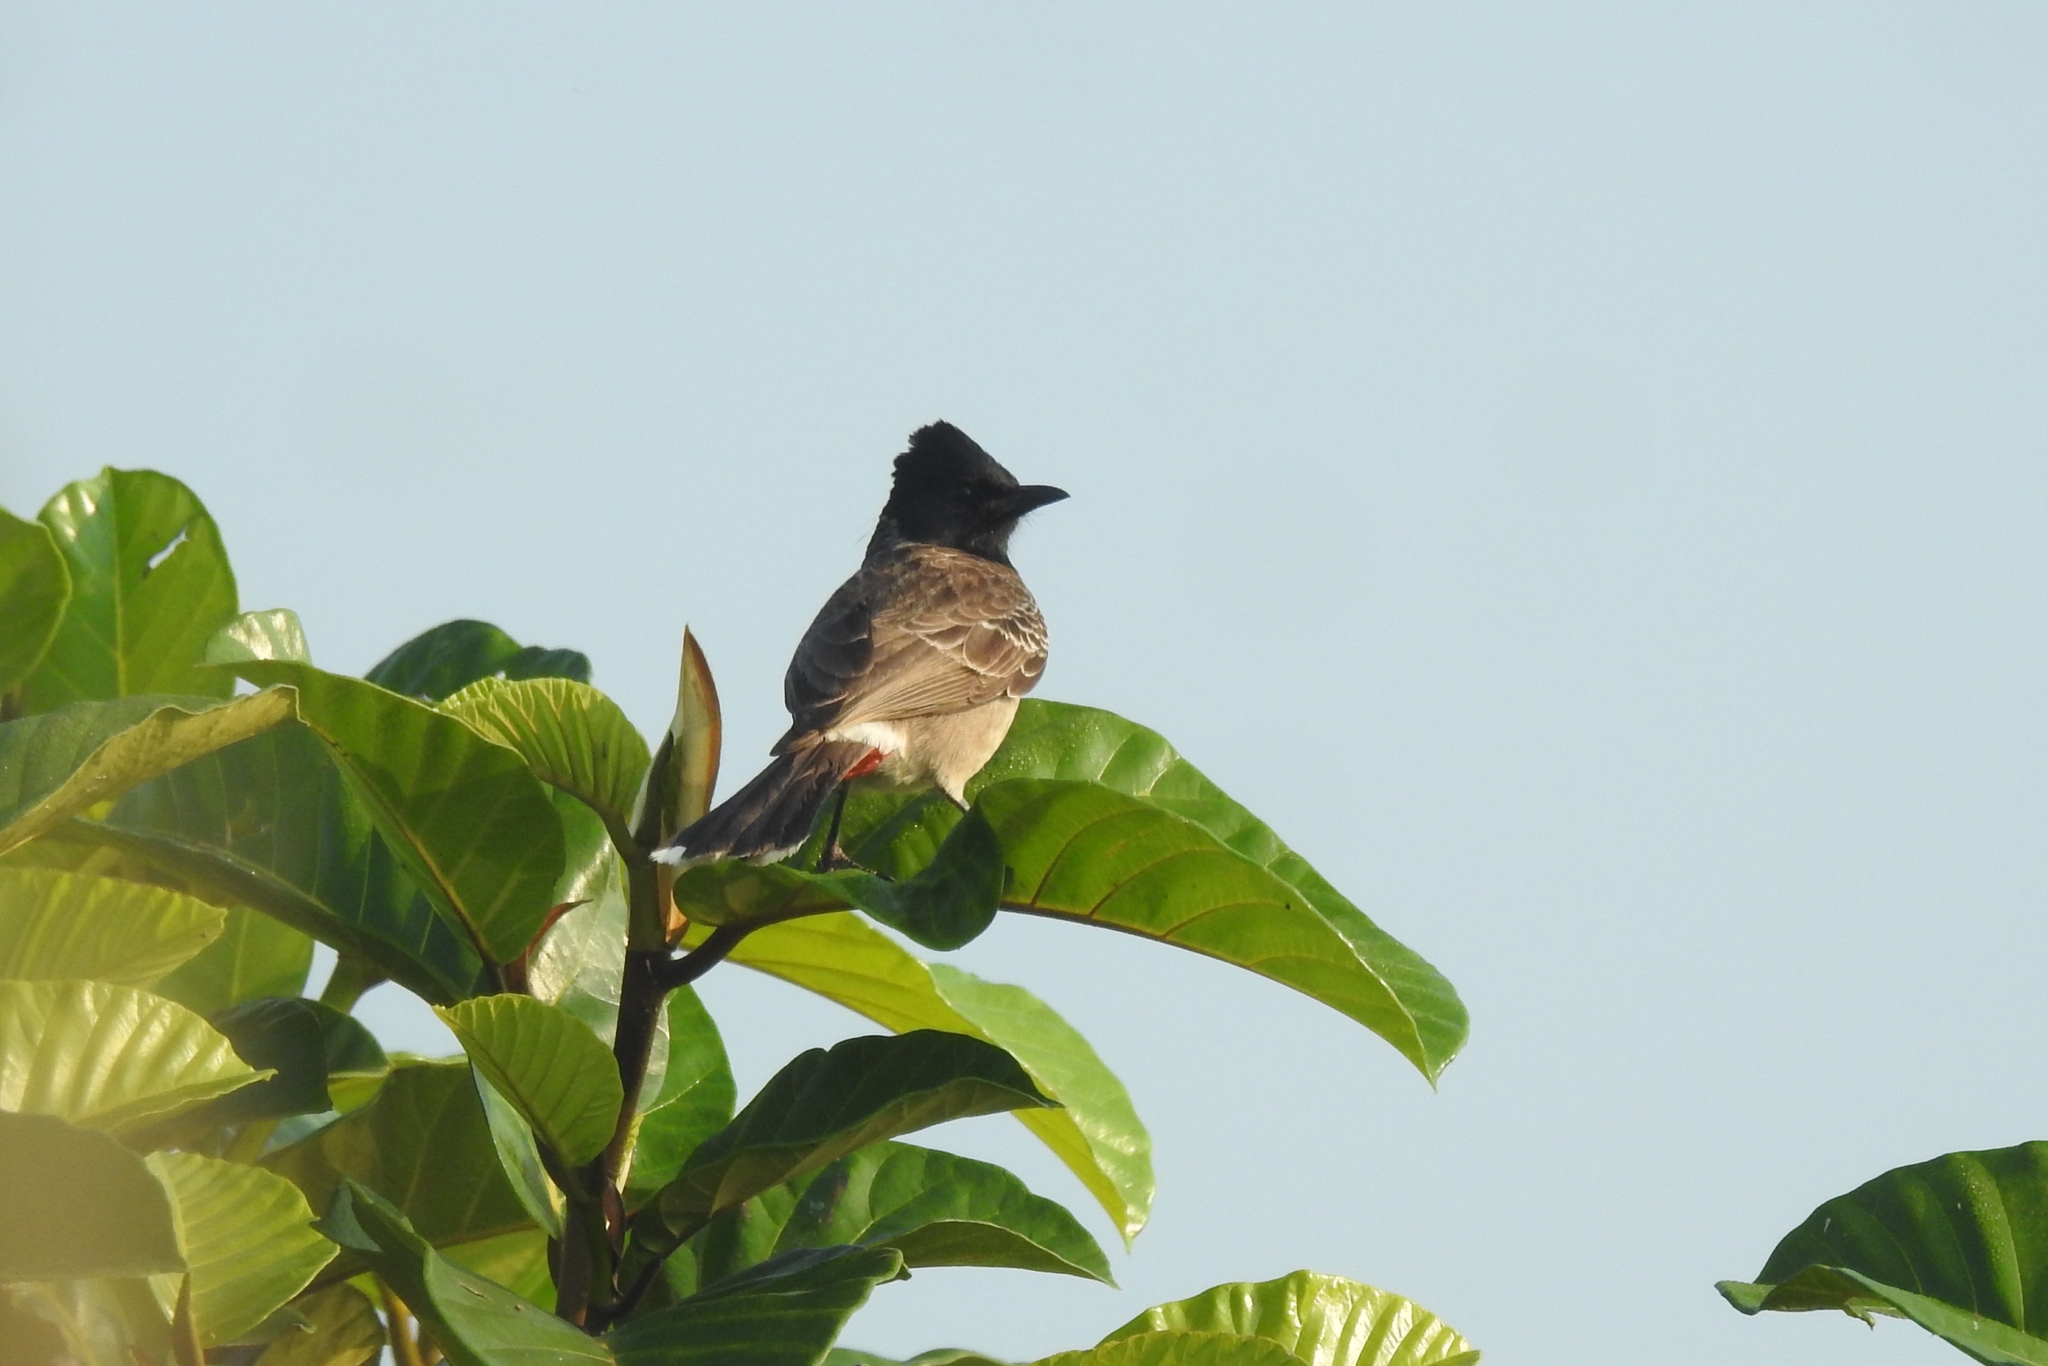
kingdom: Animalia
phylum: Chordata
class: Aves
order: Passeriformes
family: Pycnonotidae
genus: Pycnonotus
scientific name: Pycnonotus cafer
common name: Red-vented bulbul
